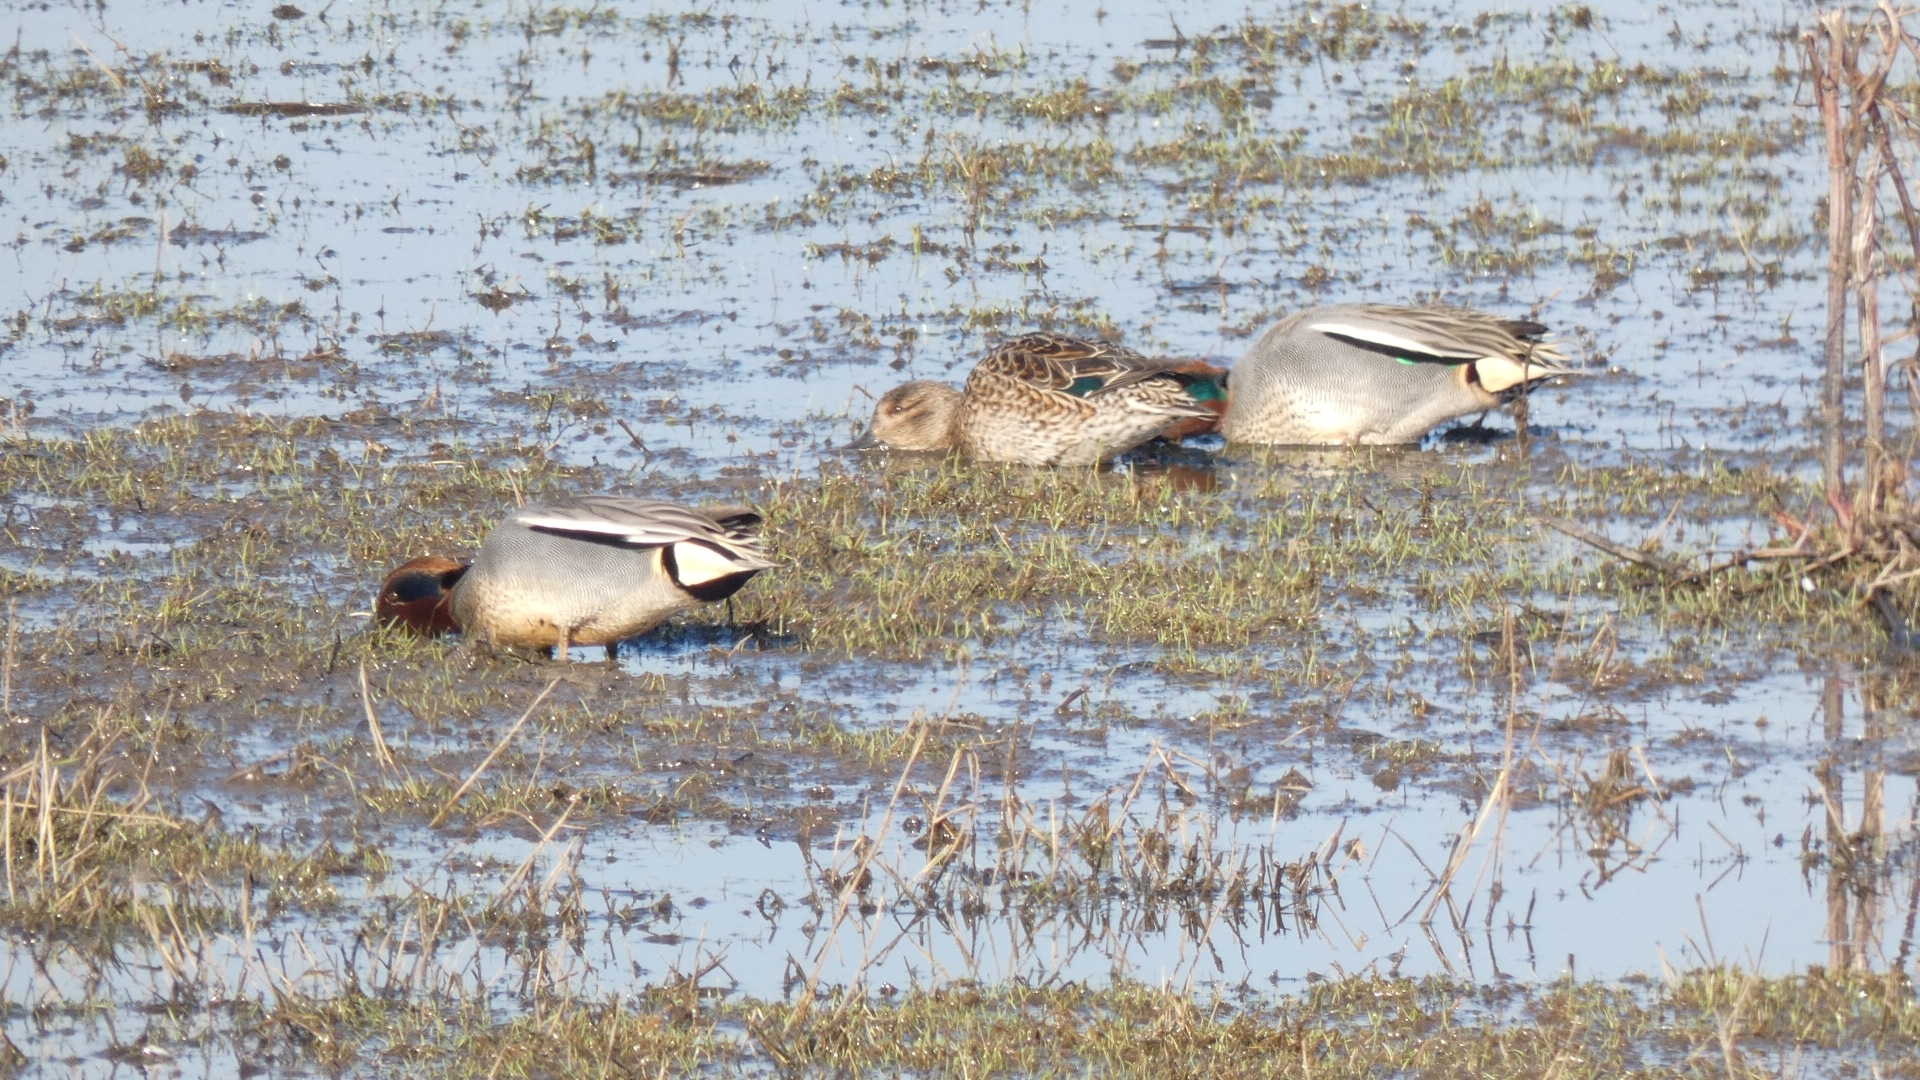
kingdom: Animalia
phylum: Chordata
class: Aves
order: Anseriformes
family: Anatidae
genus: Anas
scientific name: Anas crecca
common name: Eurasian teal
